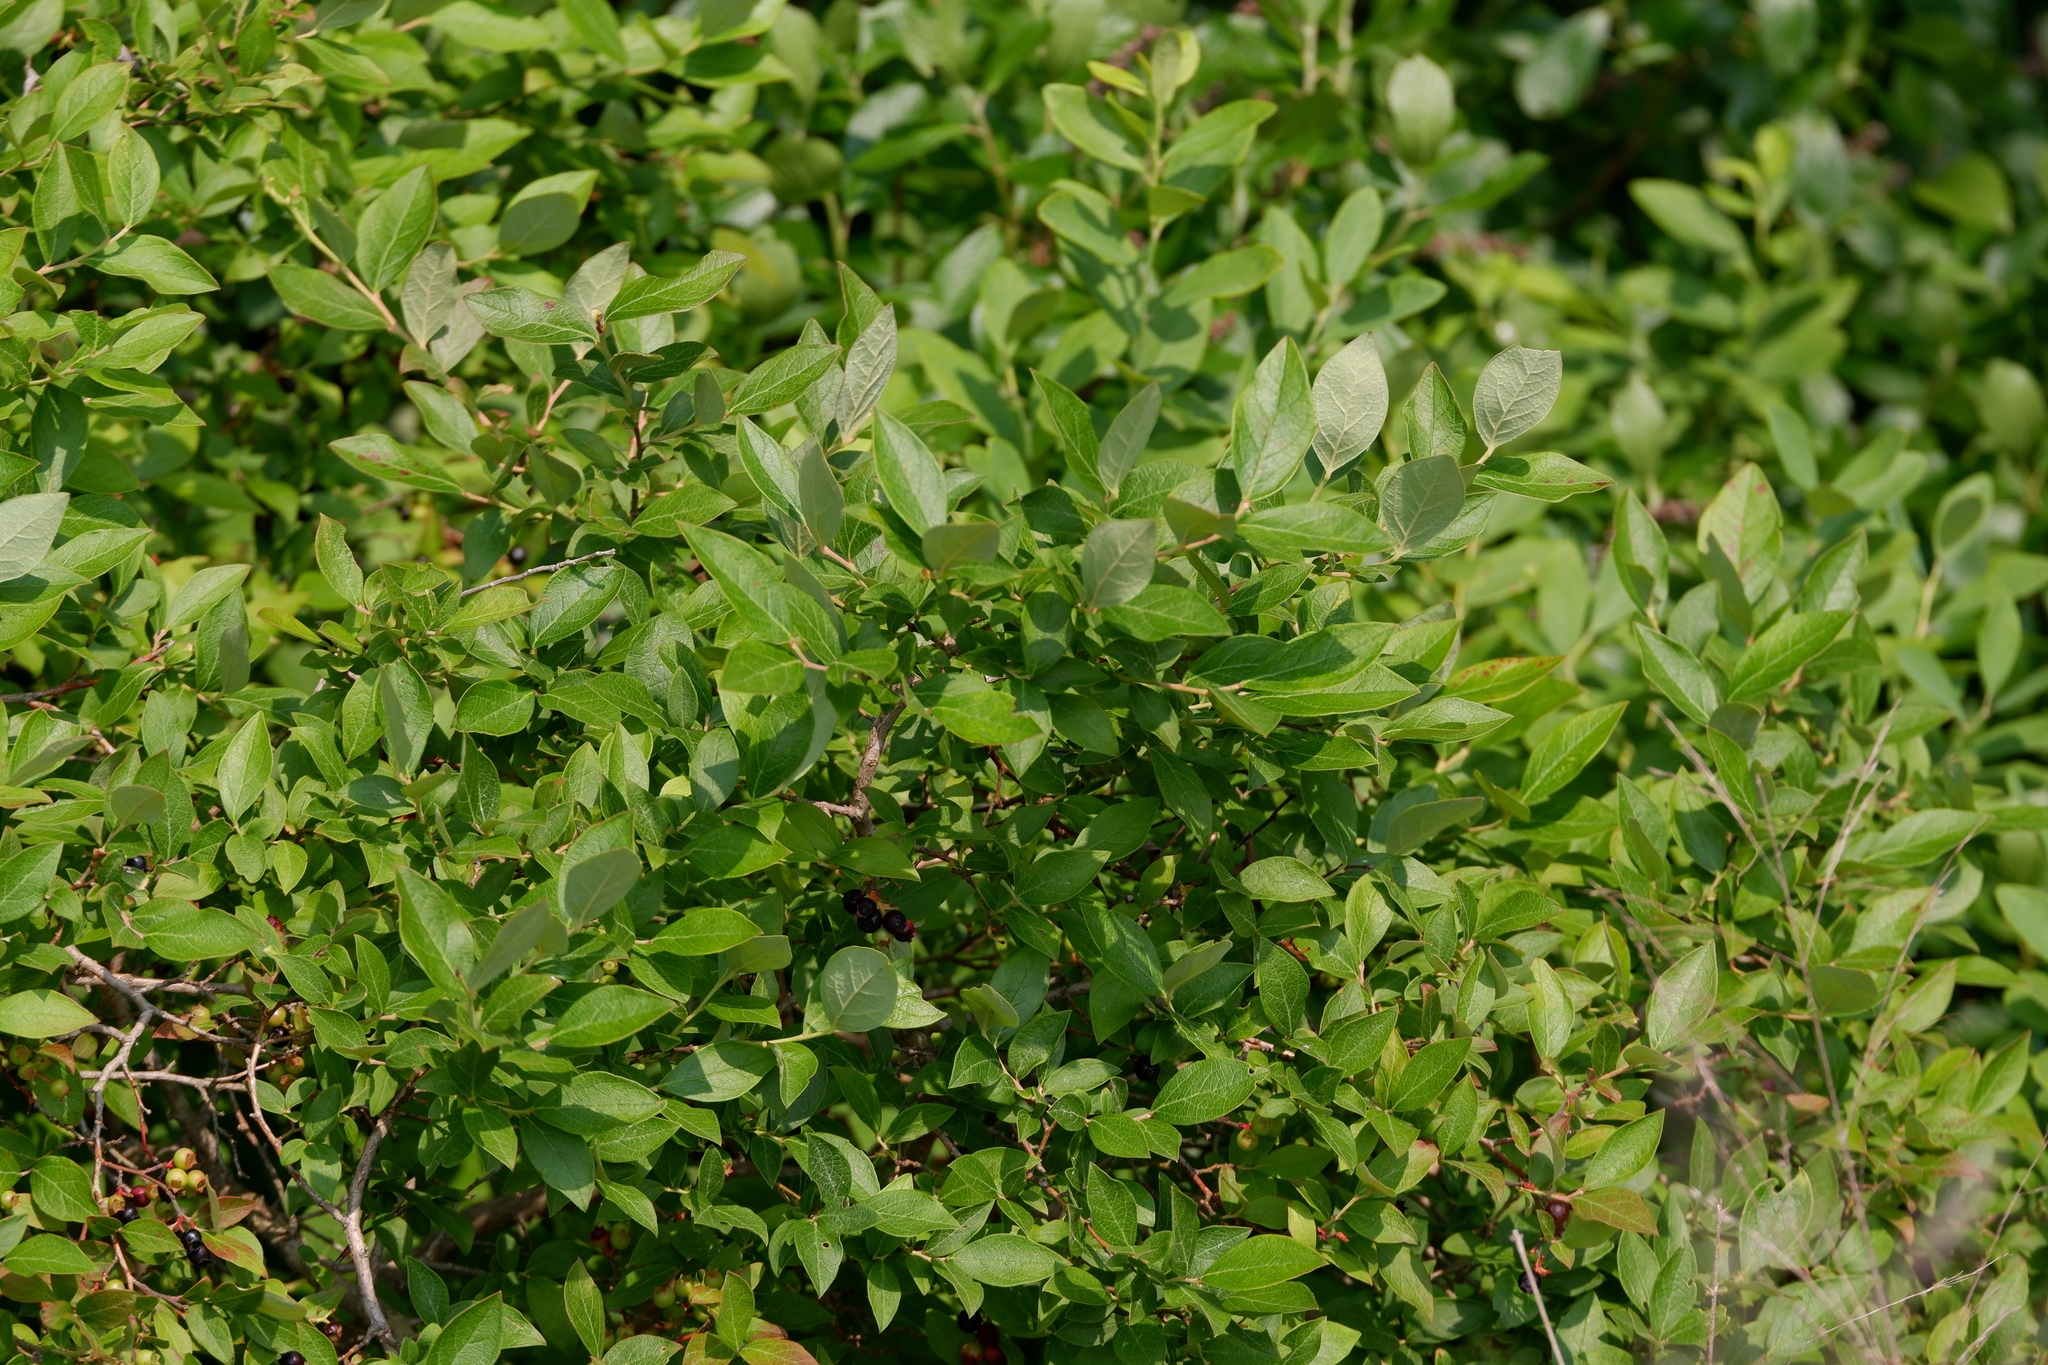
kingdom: Plantae
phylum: Tracheophyta
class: Magnoliopsida
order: Ericales
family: Ericaceae
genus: Vaccinium
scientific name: Vaccinium corymbosum
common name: Blueberry
